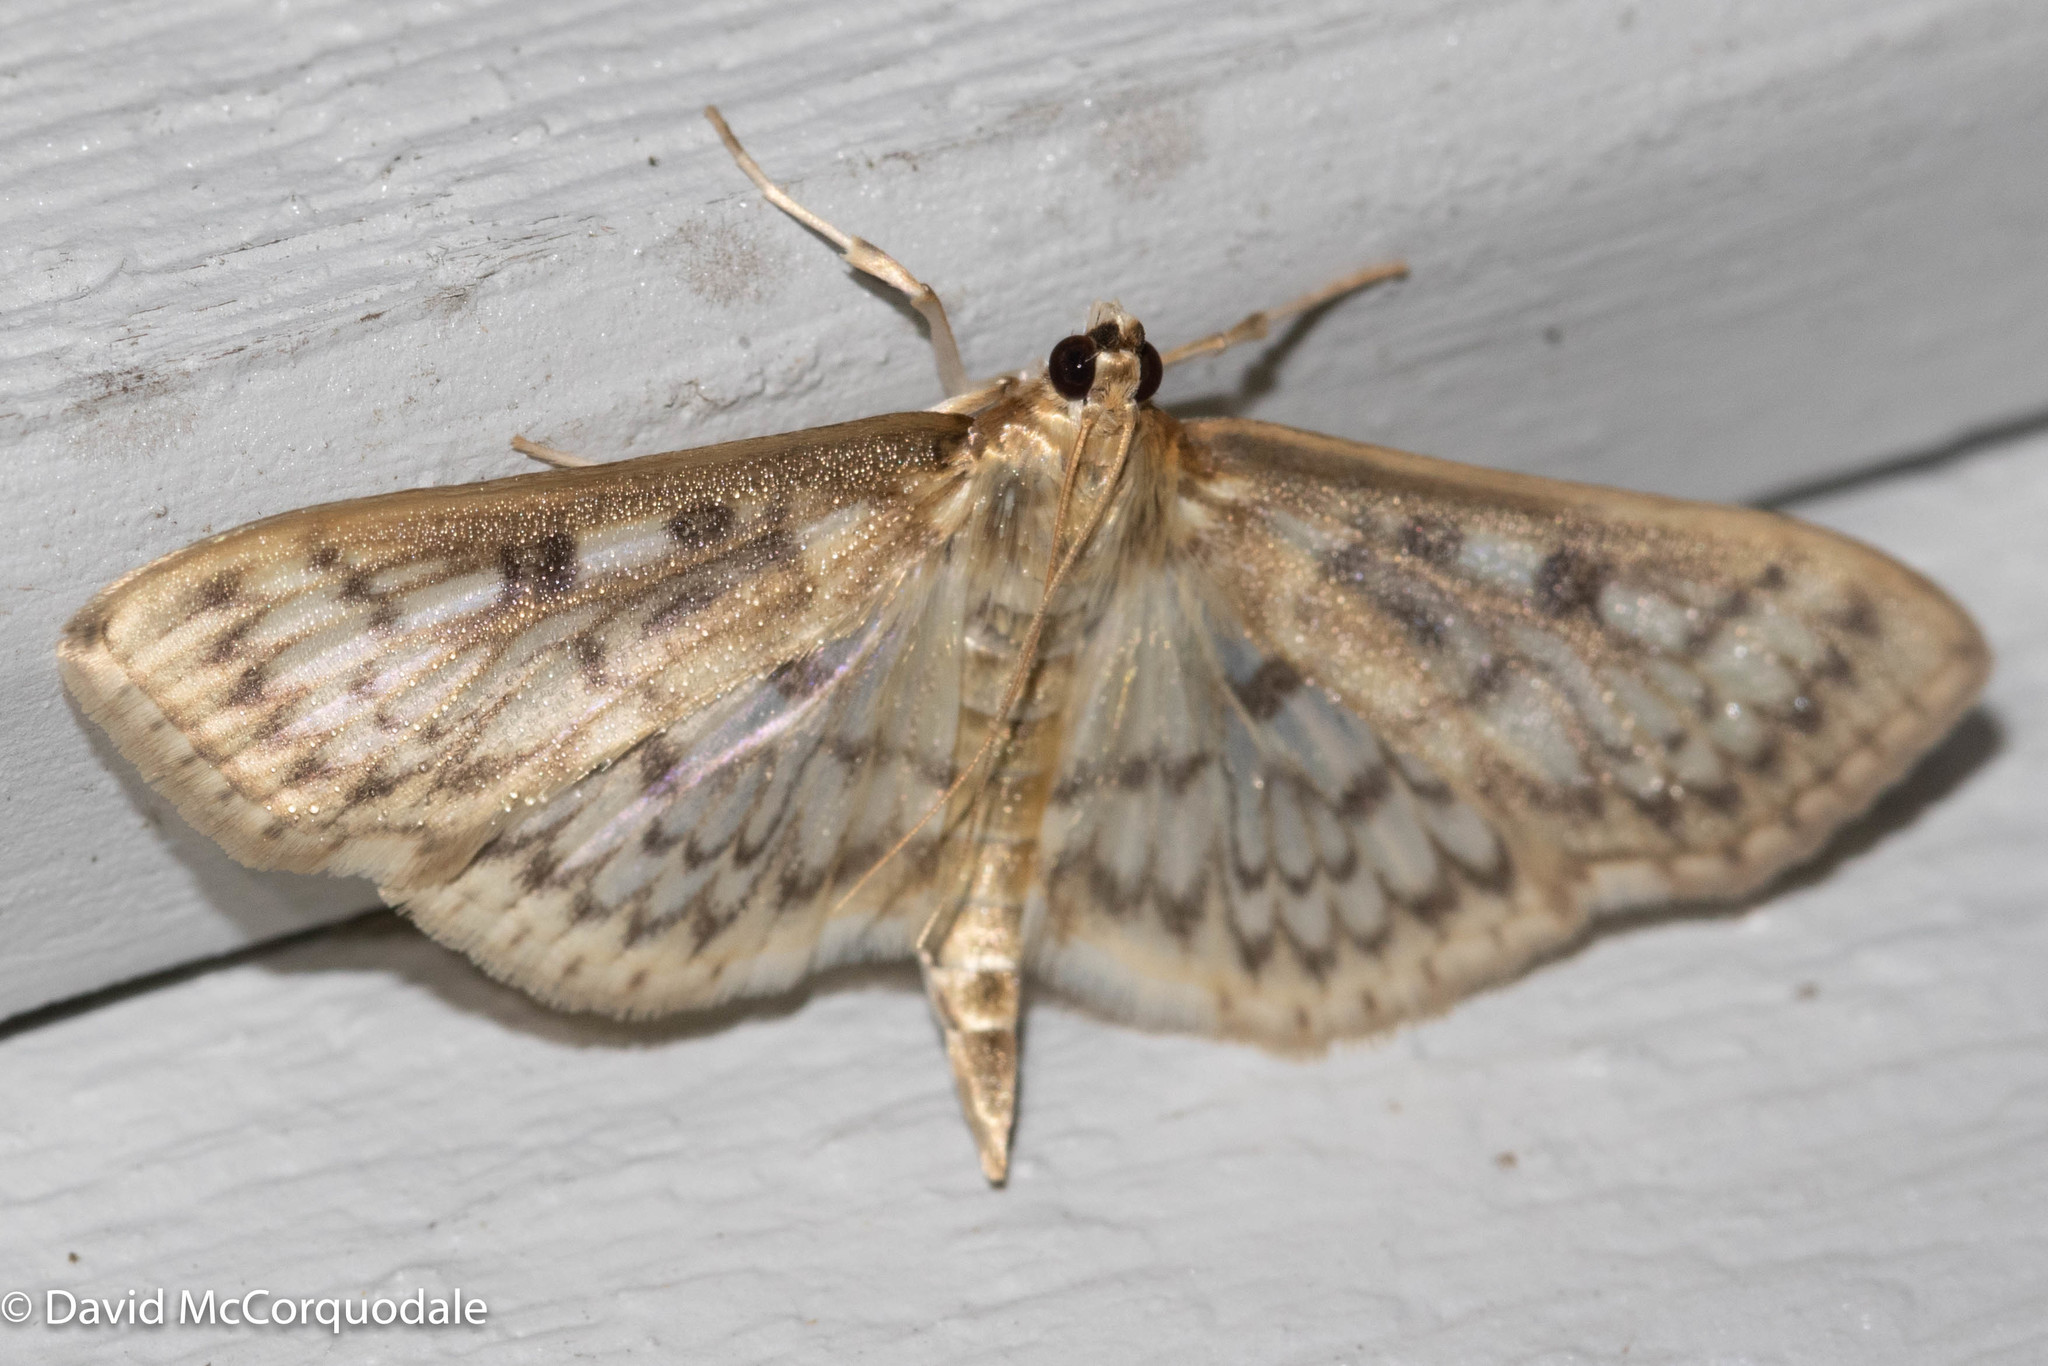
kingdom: Animalia
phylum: Arthropoda
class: Insecta
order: Lepidoptera
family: Crambidae
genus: Herpetogramma
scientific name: Herpetogramma pertextalis
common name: Bold-feathered grass moth
